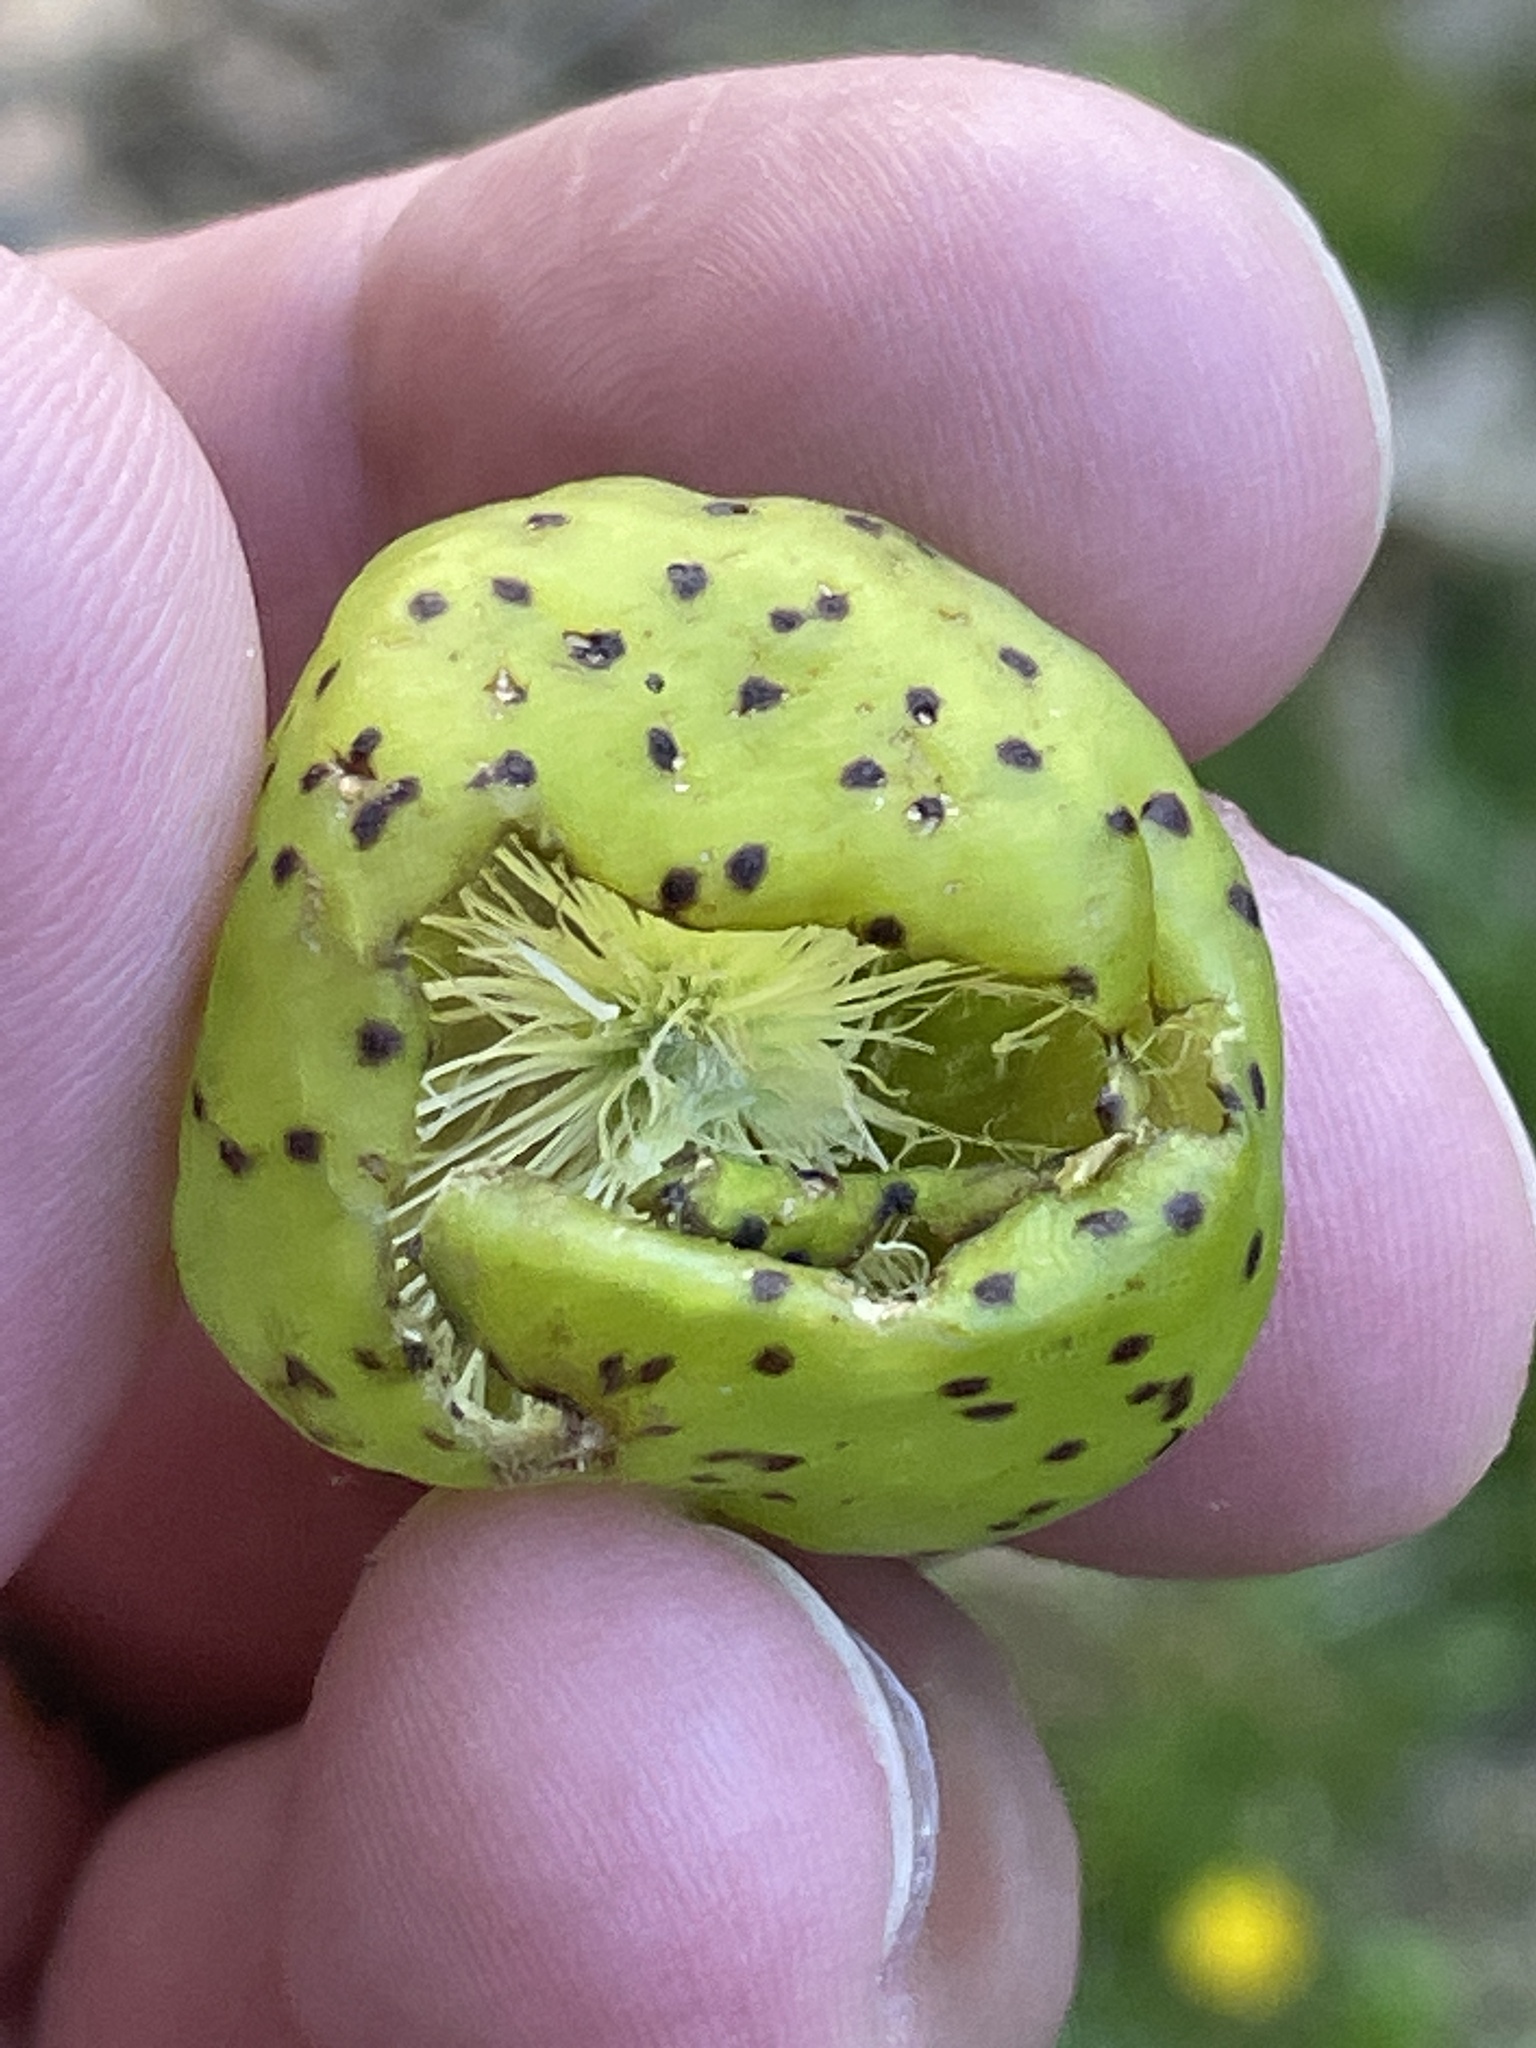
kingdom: Animalia
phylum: Arthropoda
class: Insecta
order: Hymenoptera
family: Cynipidae
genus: Amphibolips
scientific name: Amphibolips
